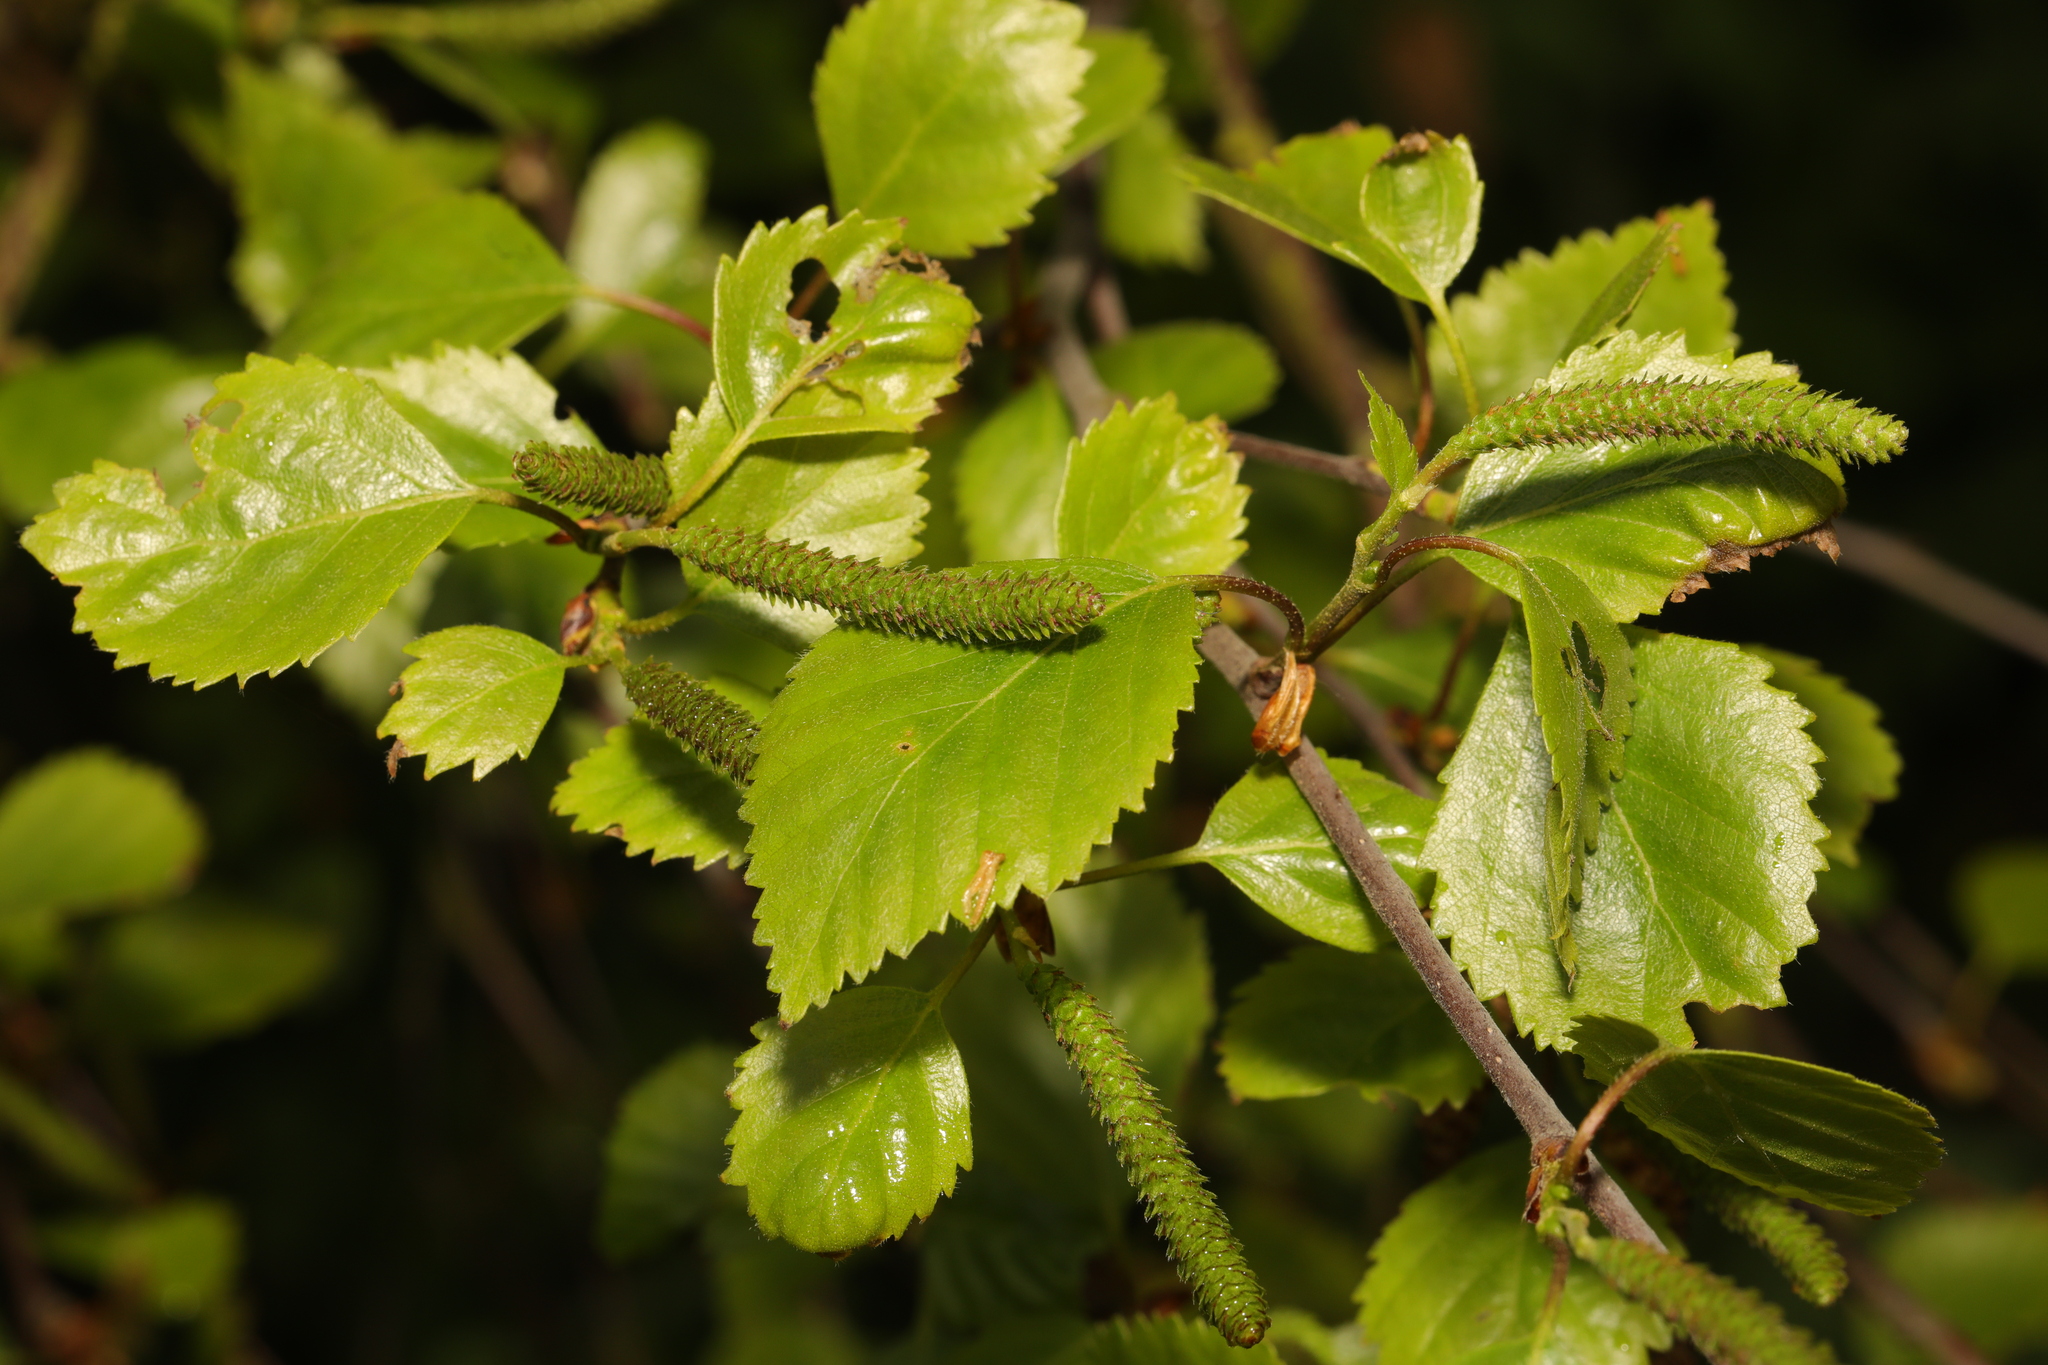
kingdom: Plantae
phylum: Tracheophyta
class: Magnoliopsida
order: Fagales
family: Betulaceae
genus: Betula
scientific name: Betula pubescens
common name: Downy birch
